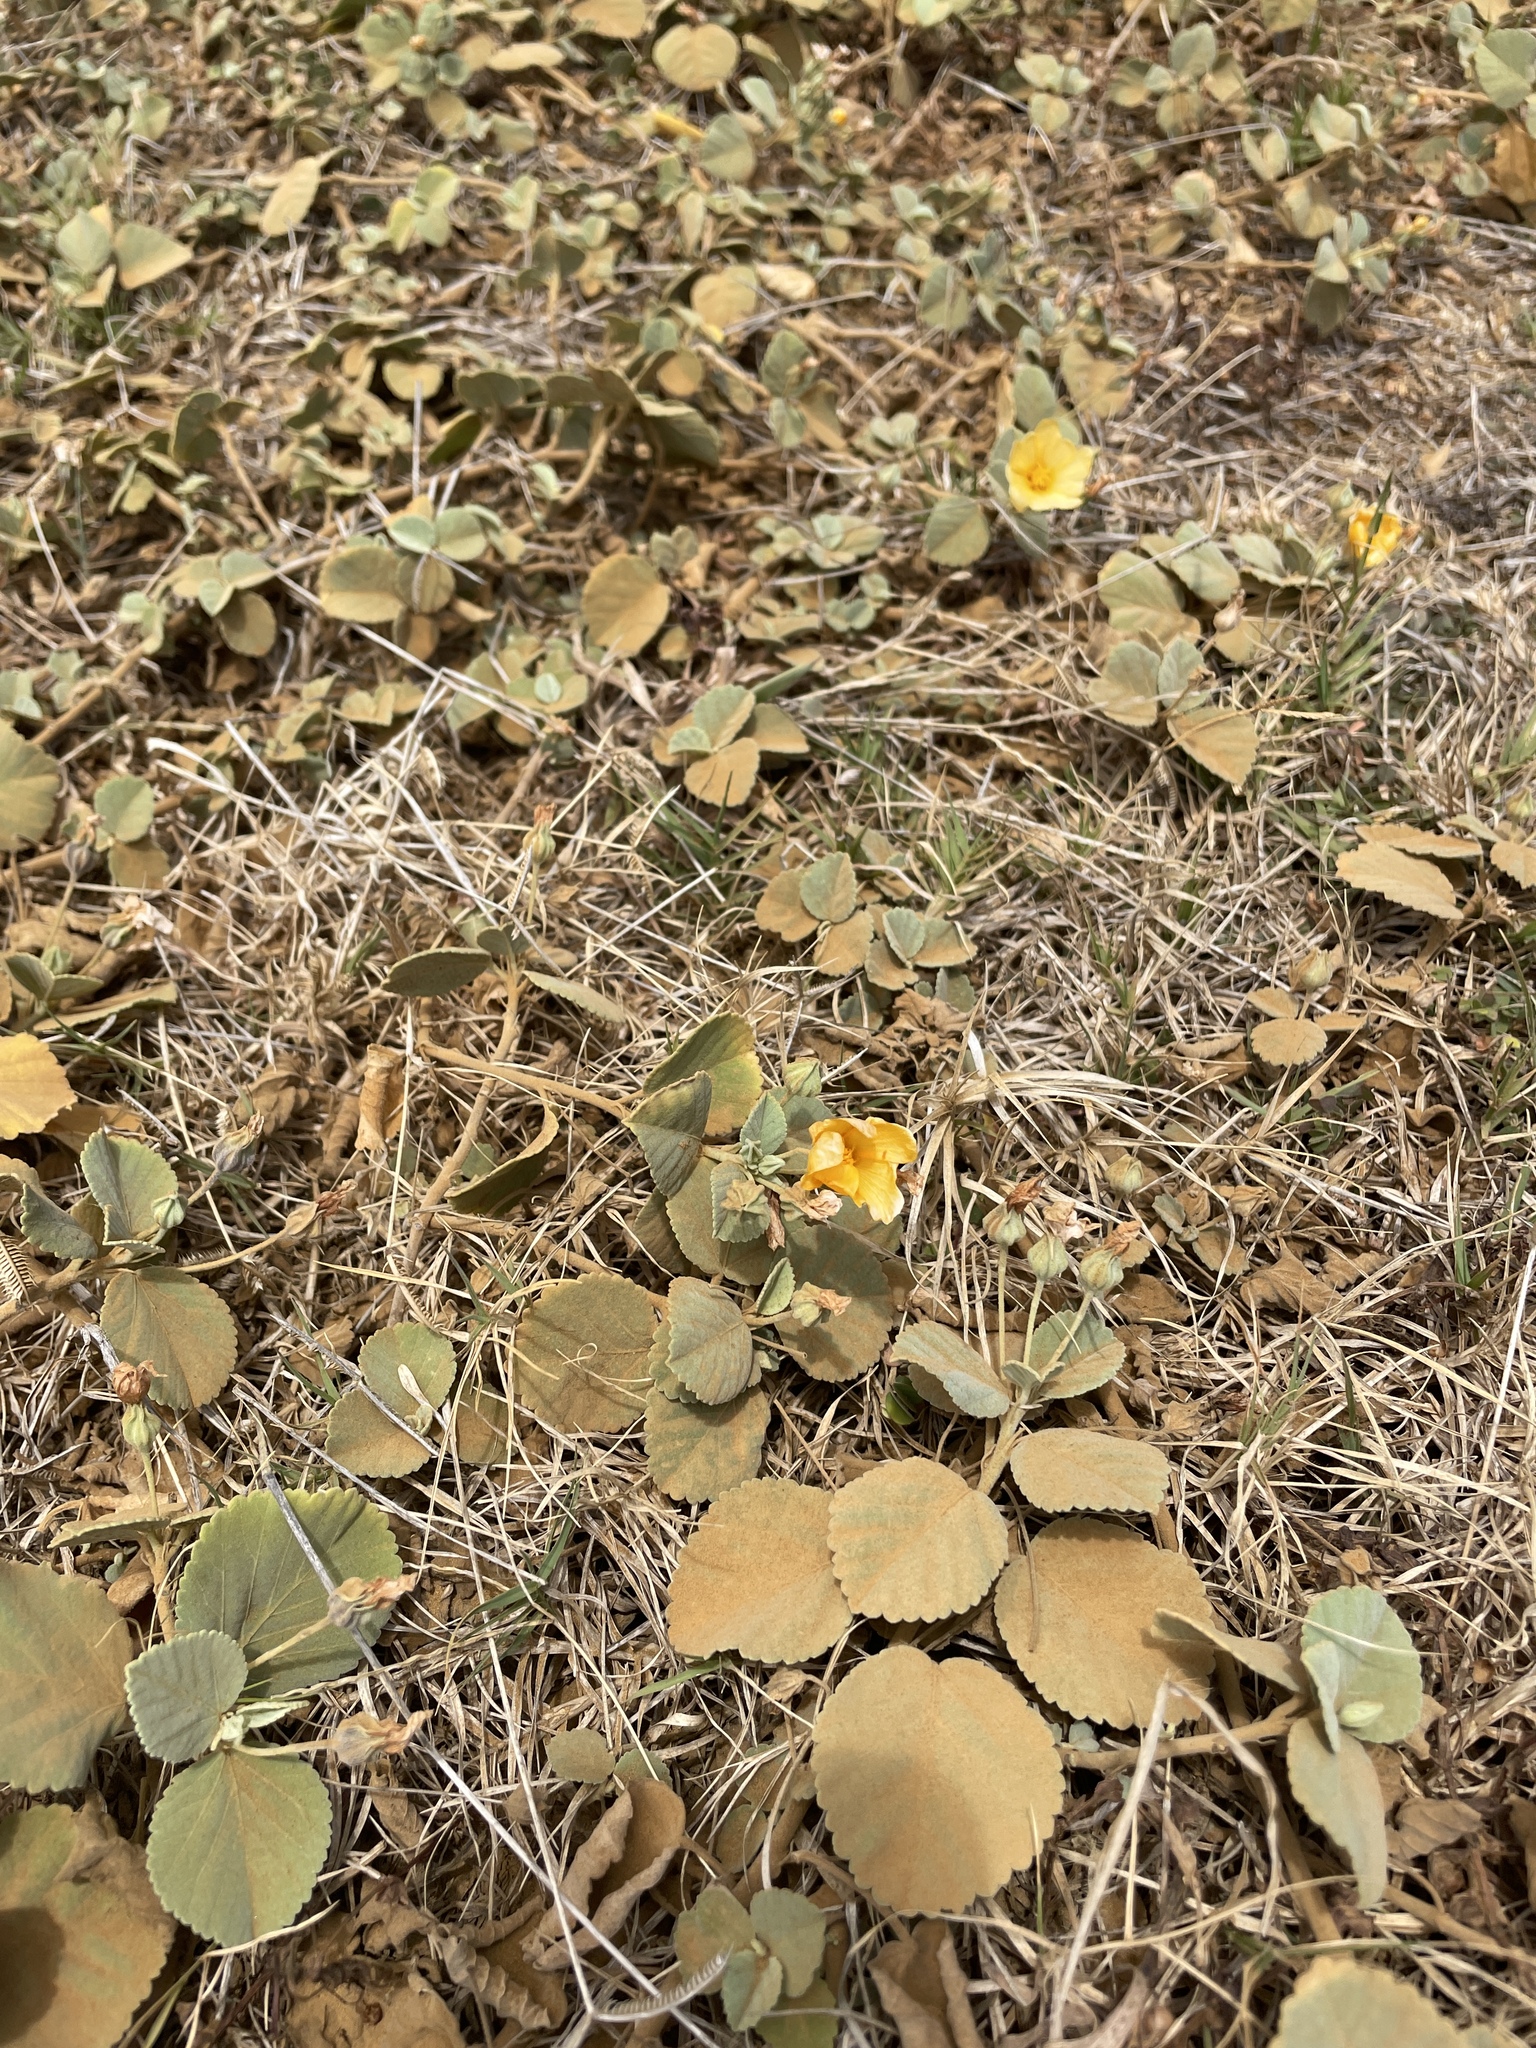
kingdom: Plantae
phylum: Tracheophyta
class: Magnoliopsida
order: Malvales
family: Malvaceae
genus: Sida
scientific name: Sida fallax
